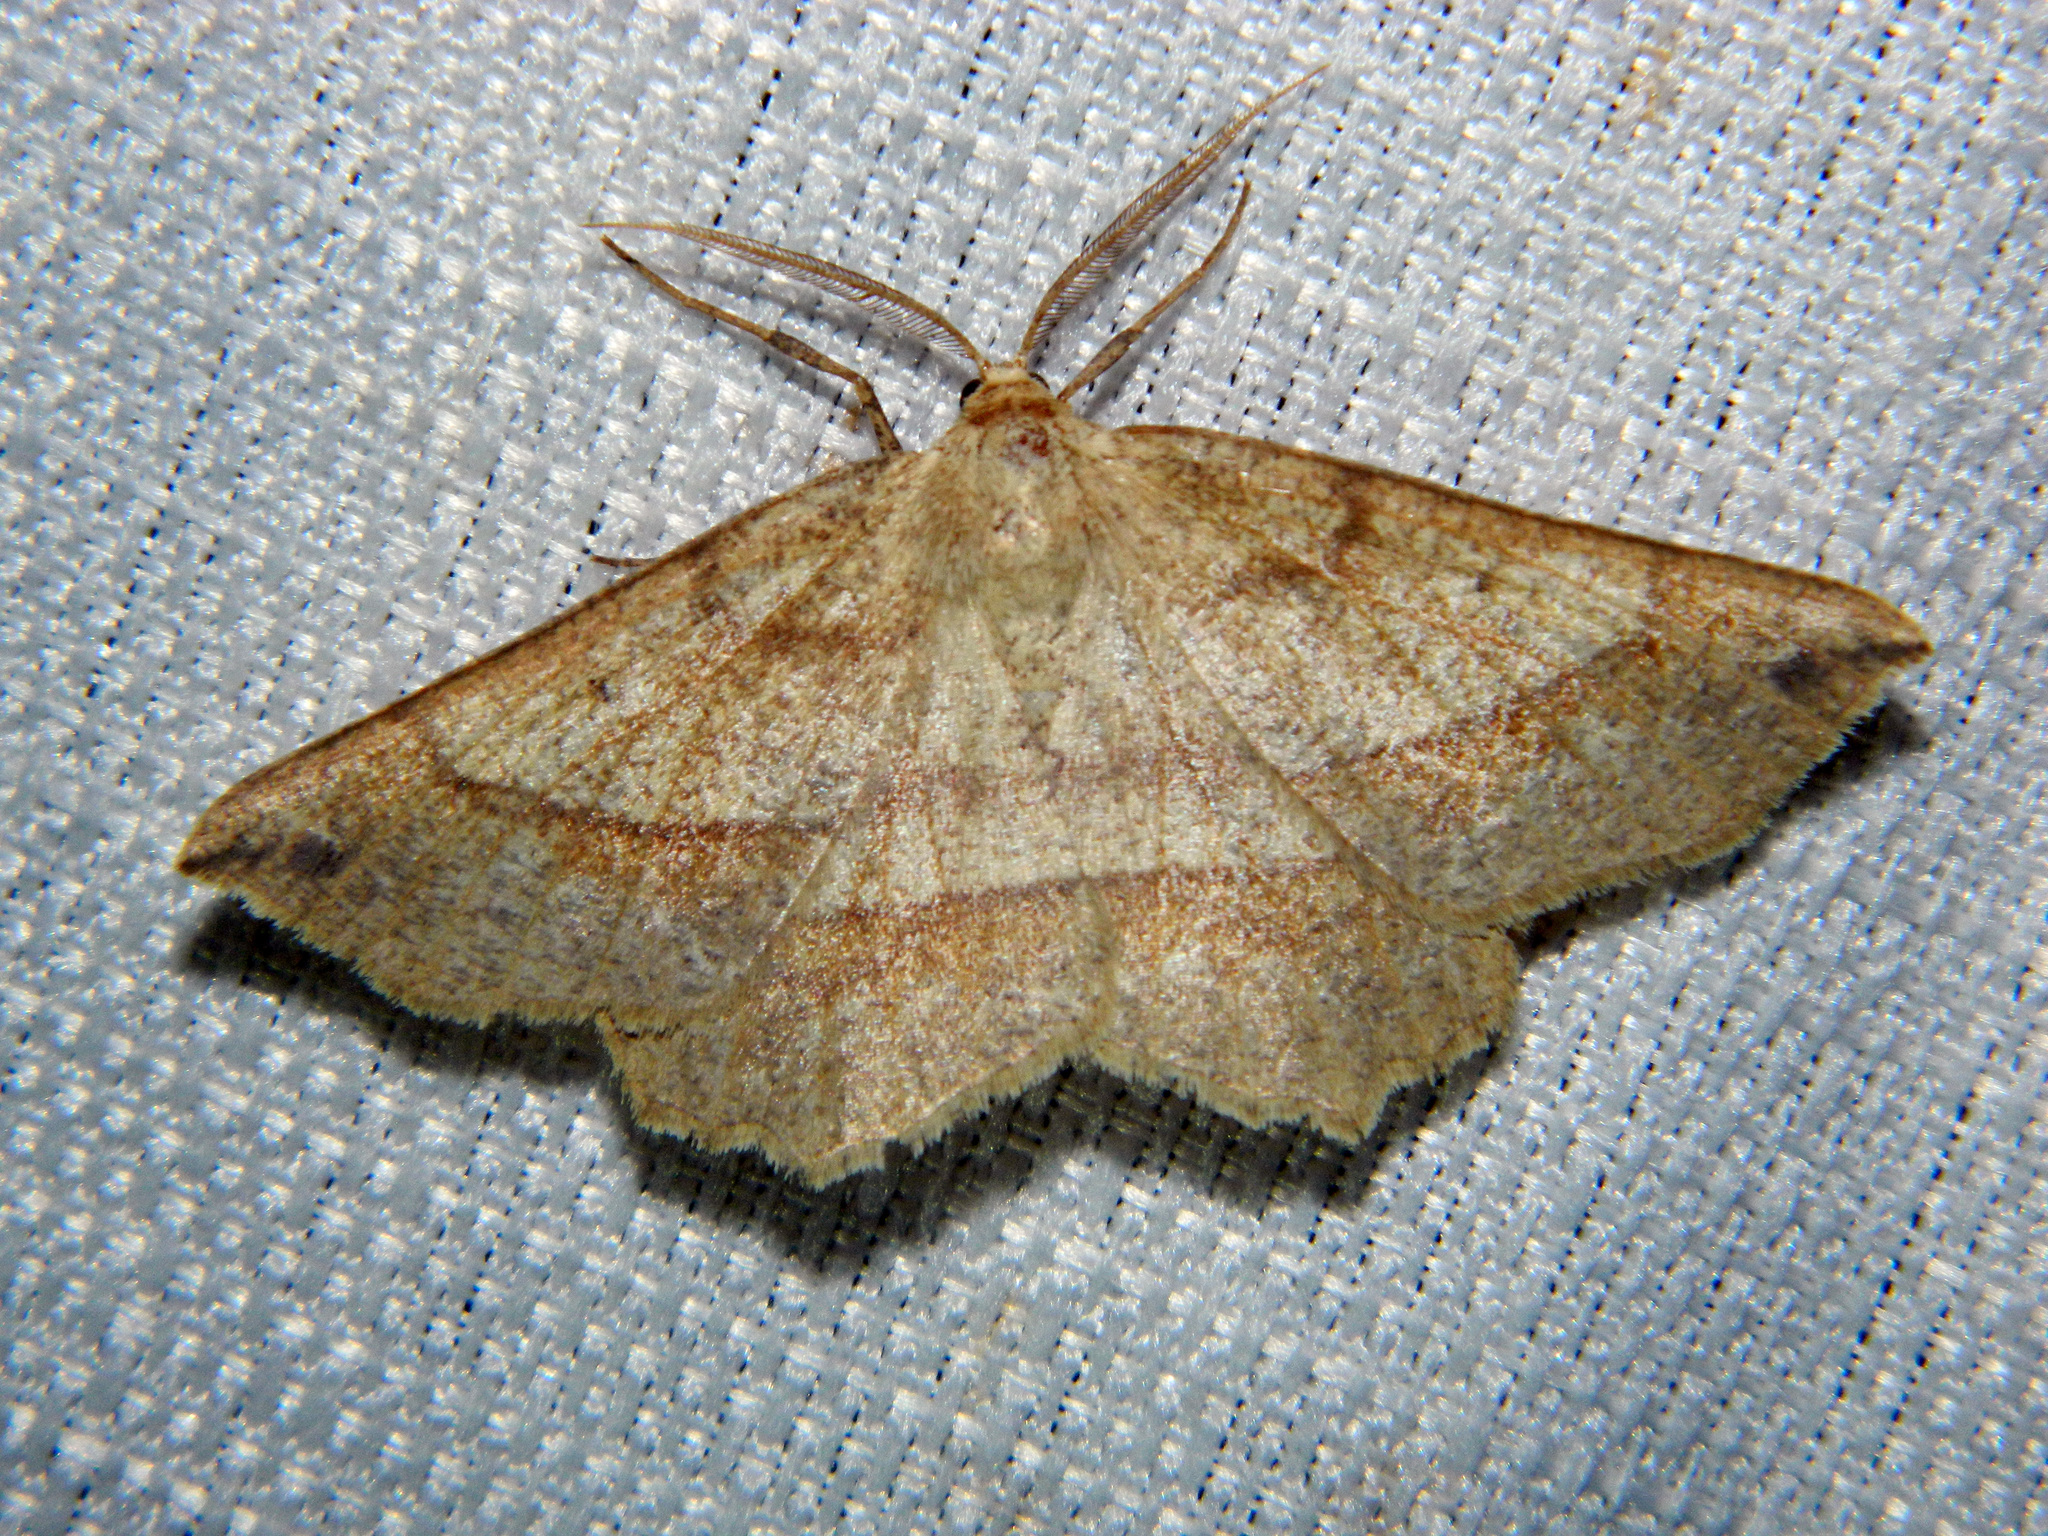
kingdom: Animalia
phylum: Arthropoda
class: Insecta
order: Lepidoptera
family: Geometridae
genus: Euchlaena
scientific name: Euchlaena marginaria
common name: Ochre euchlaena moth
